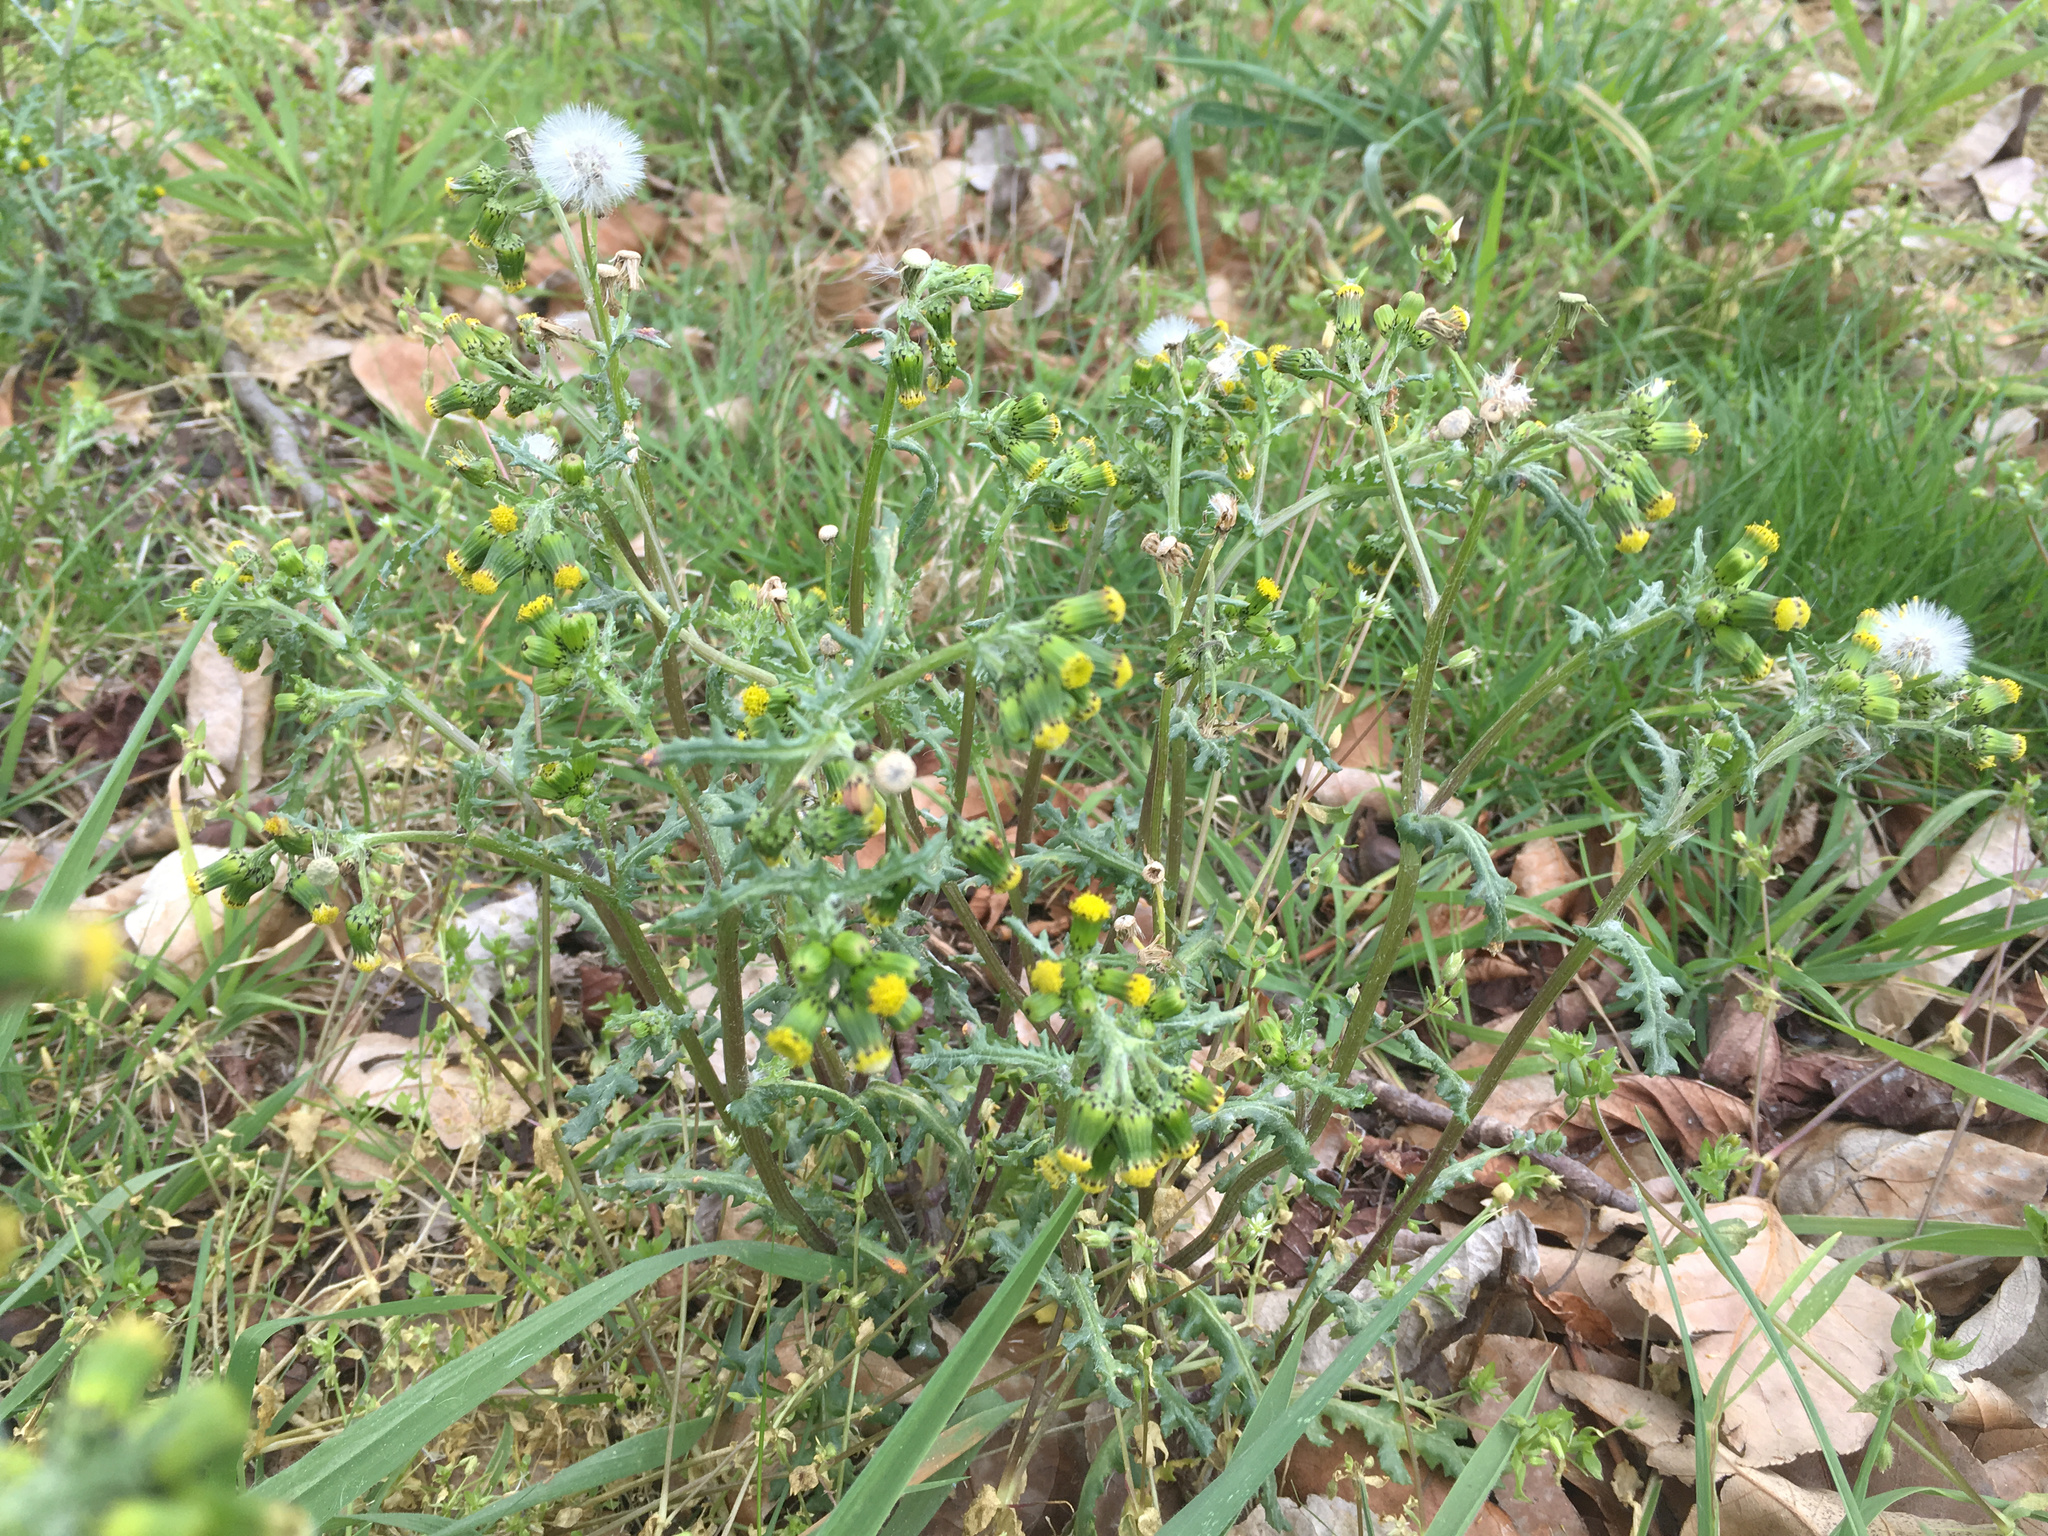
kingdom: Plantae
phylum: Tracheophyta
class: Magnoliopsida
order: Asterales
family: Asteraceae
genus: Senecio
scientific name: Senecio vulgaris
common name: Old-man-in-the-spring
